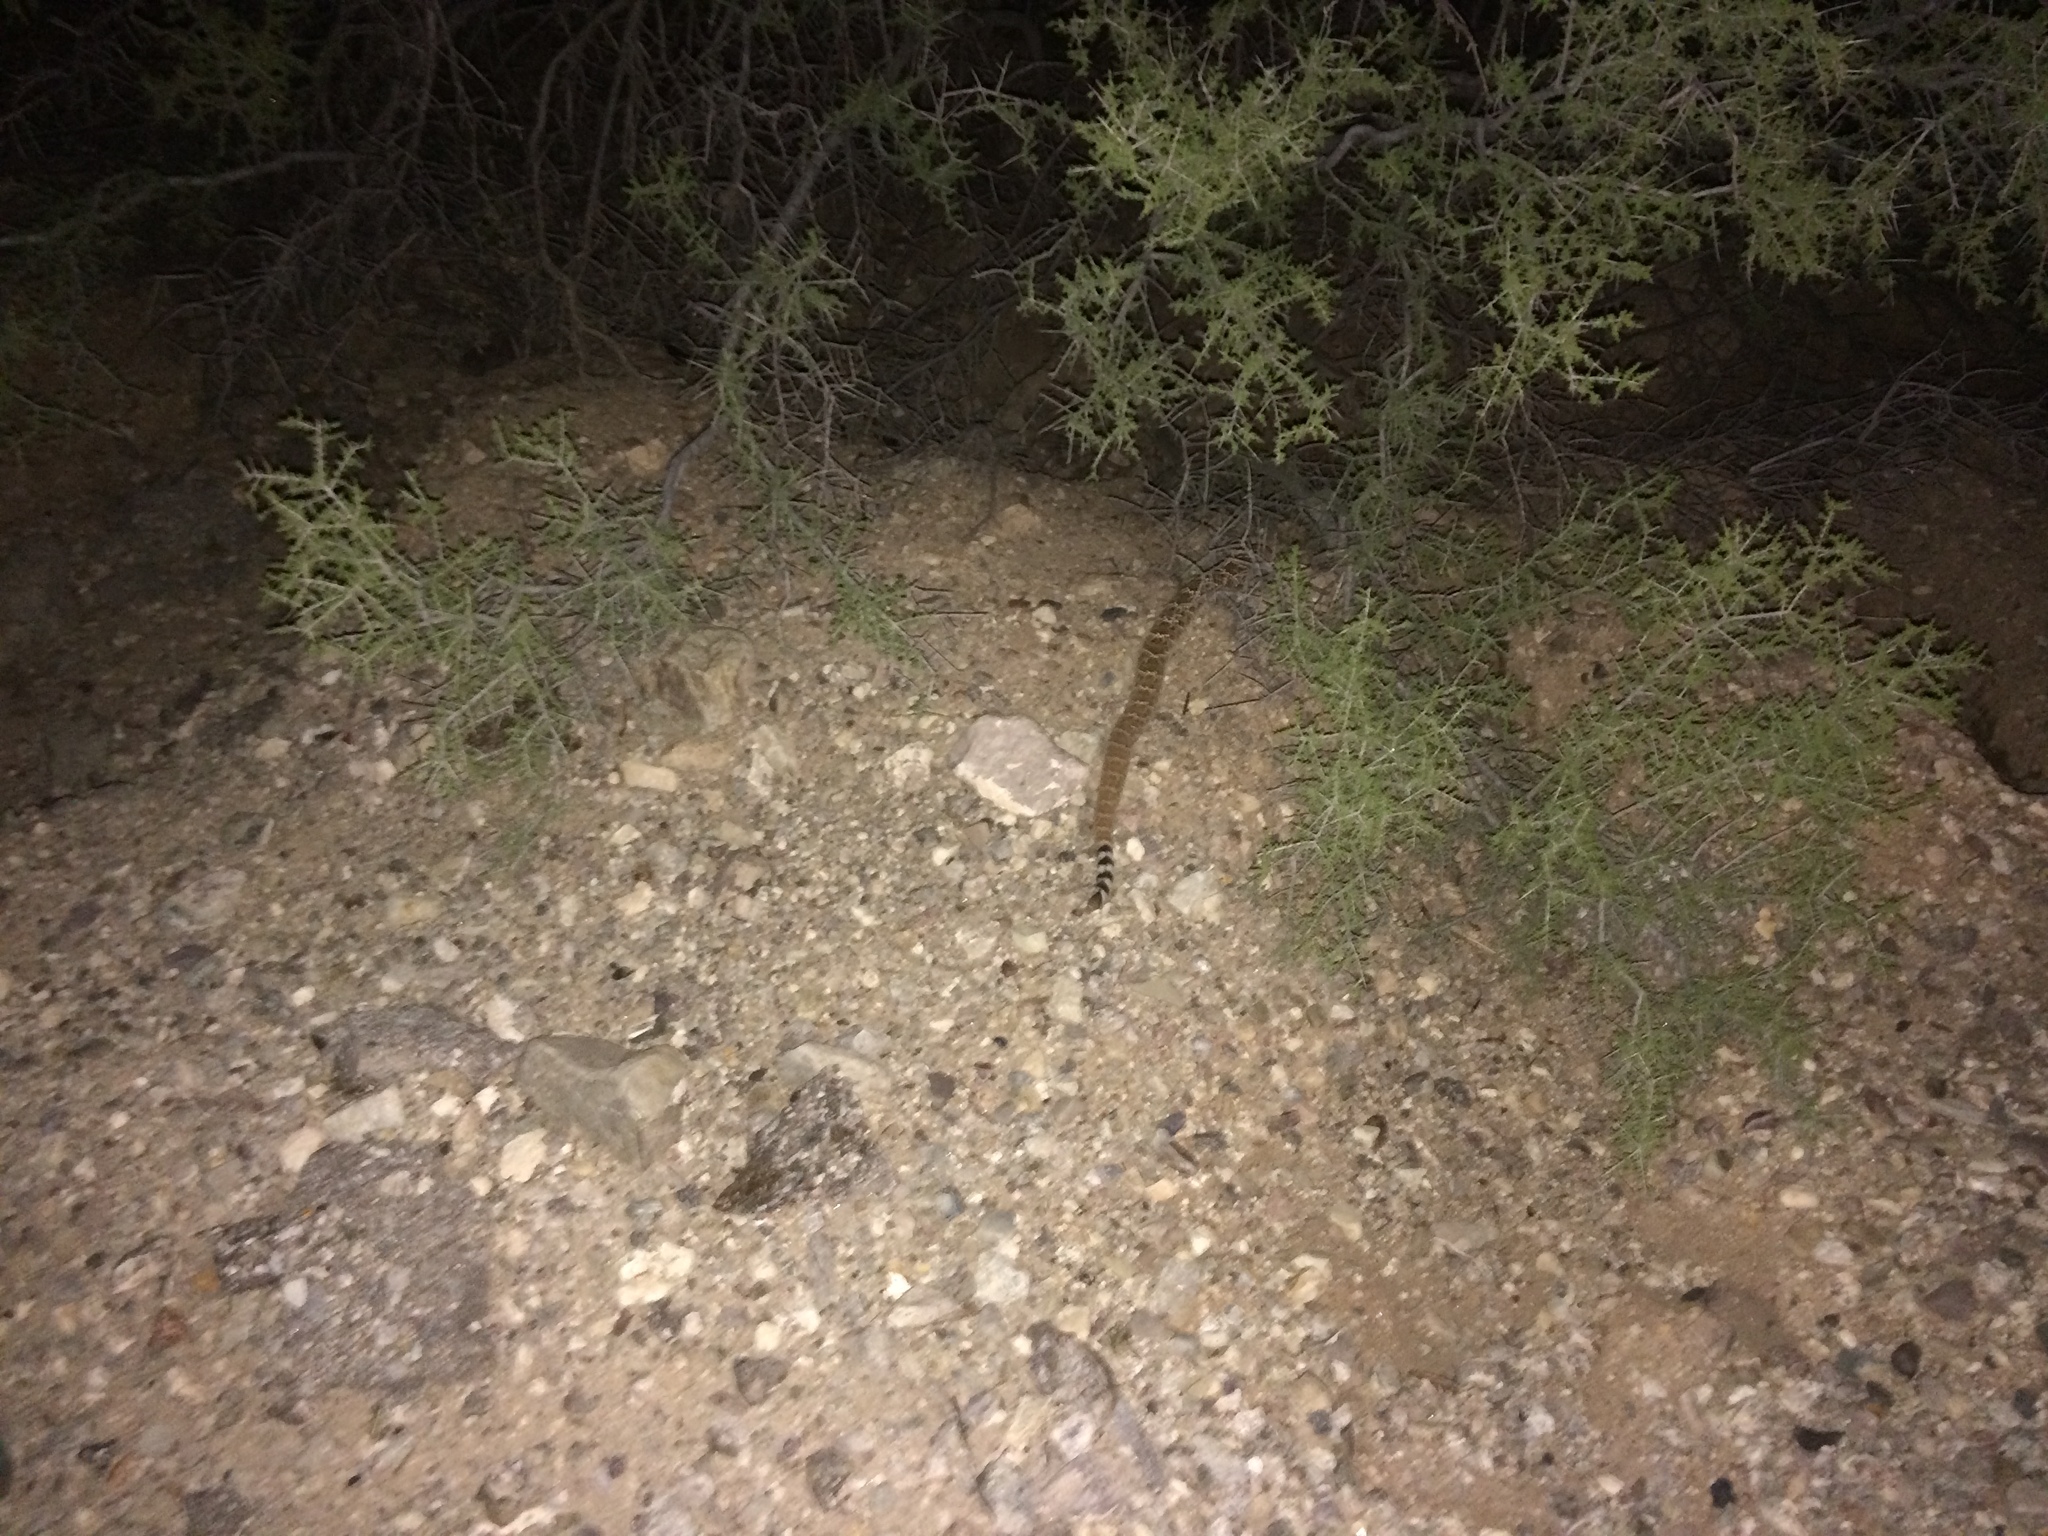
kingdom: Animalia
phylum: Chordata
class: Squamata
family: Viperidae
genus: Crotalus
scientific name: Crotalus atrox
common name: Western diamond-backed rattlesnake
